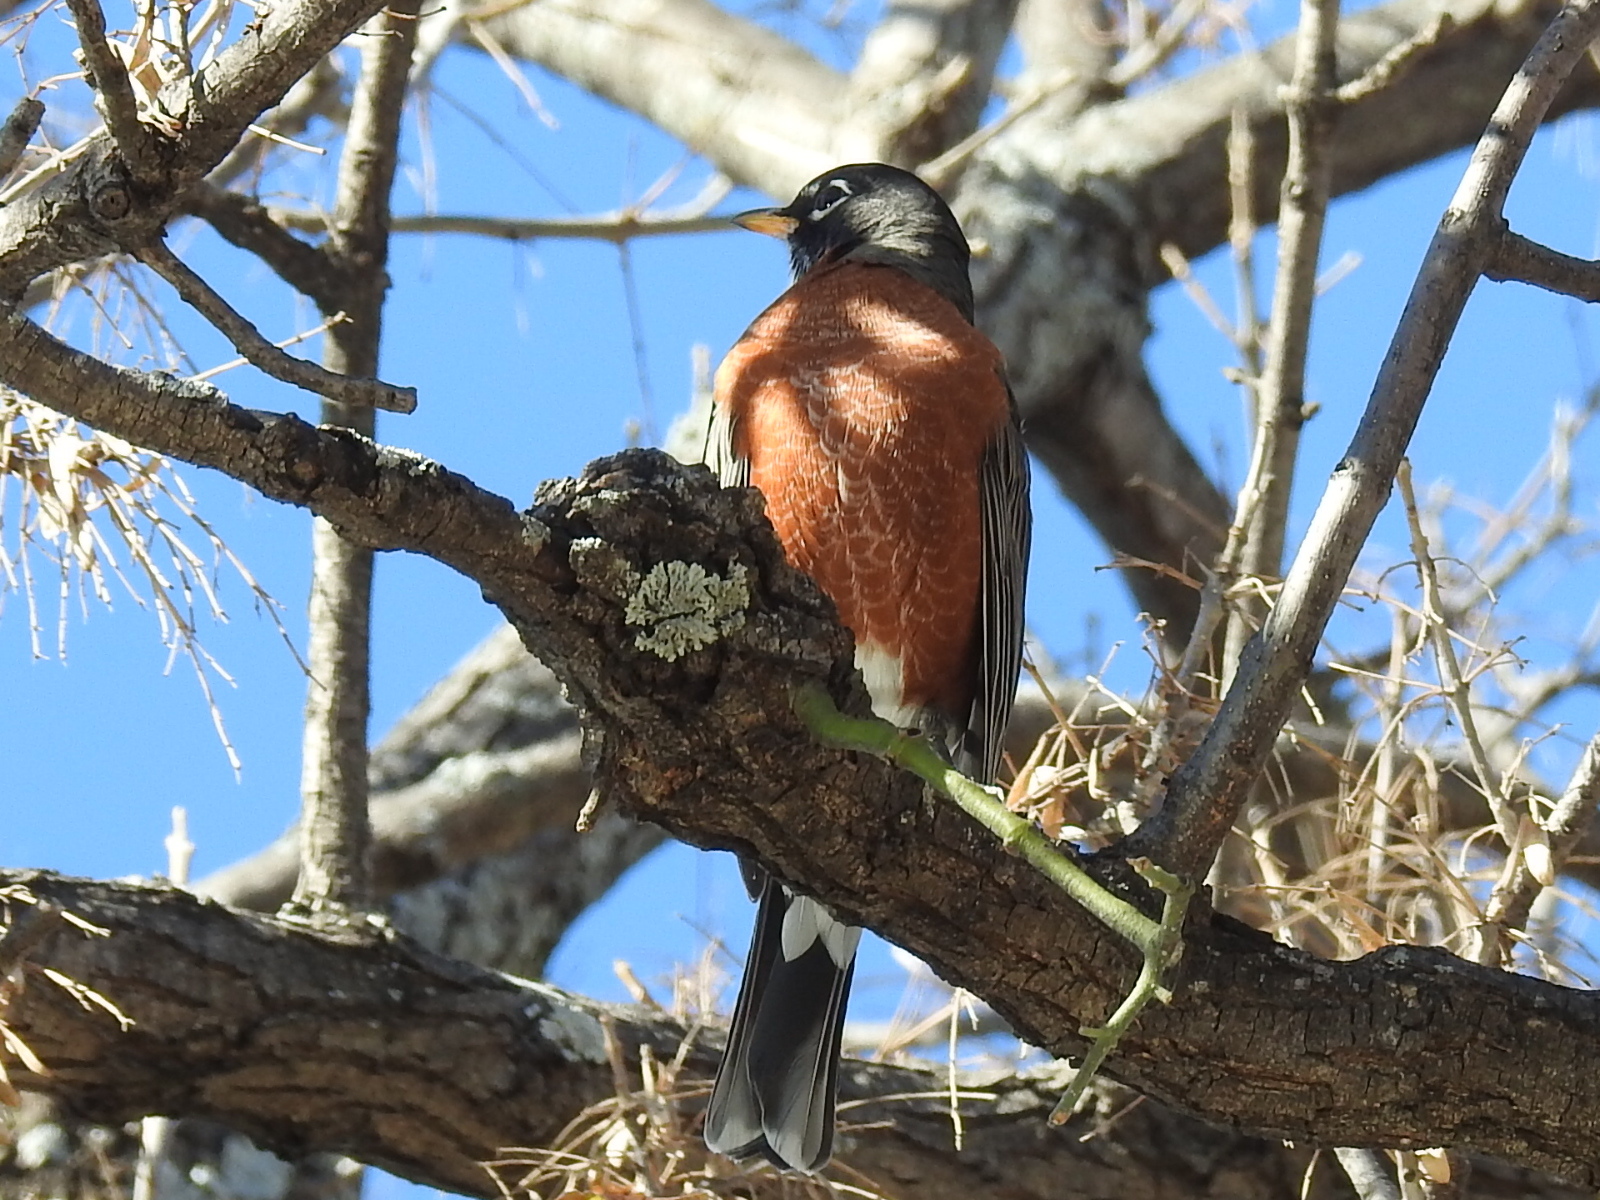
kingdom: Animalia
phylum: Chordata
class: Aves
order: Passeriformes
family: Turdidae
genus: Turdus
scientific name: Turdus migratorius
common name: American robin
